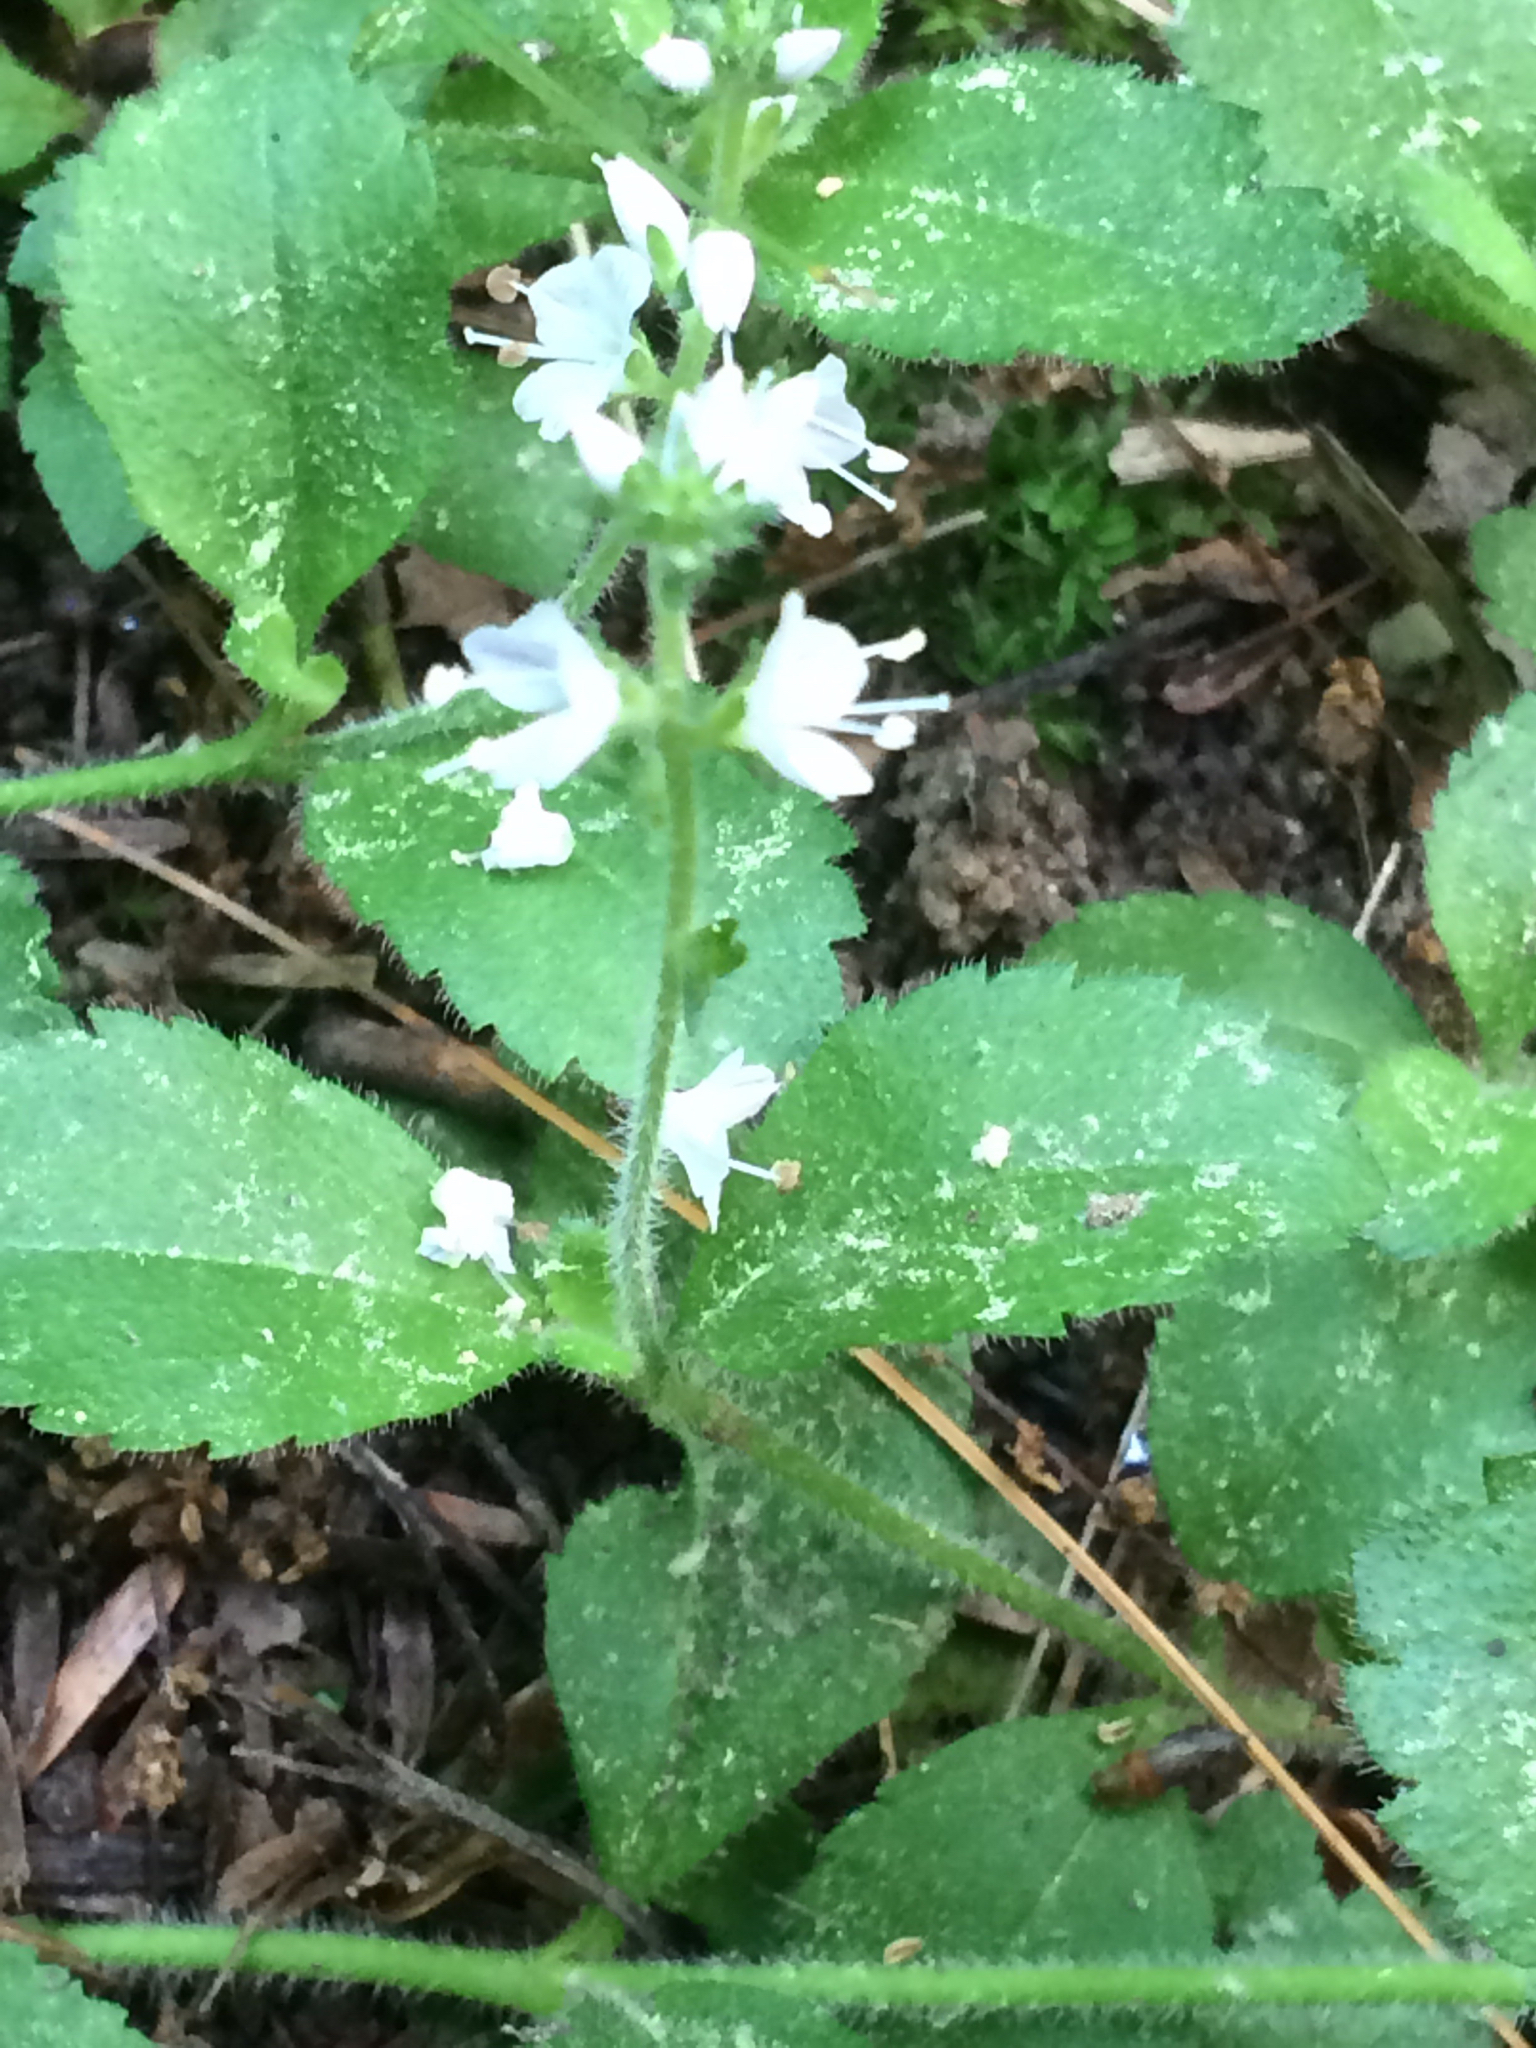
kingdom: Plantae
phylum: Tracheophyta
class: Magnoliopsida
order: Lamiales
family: Plantaginaceae
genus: Veronica
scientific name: Veronica officinalis
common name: Common speedwell
